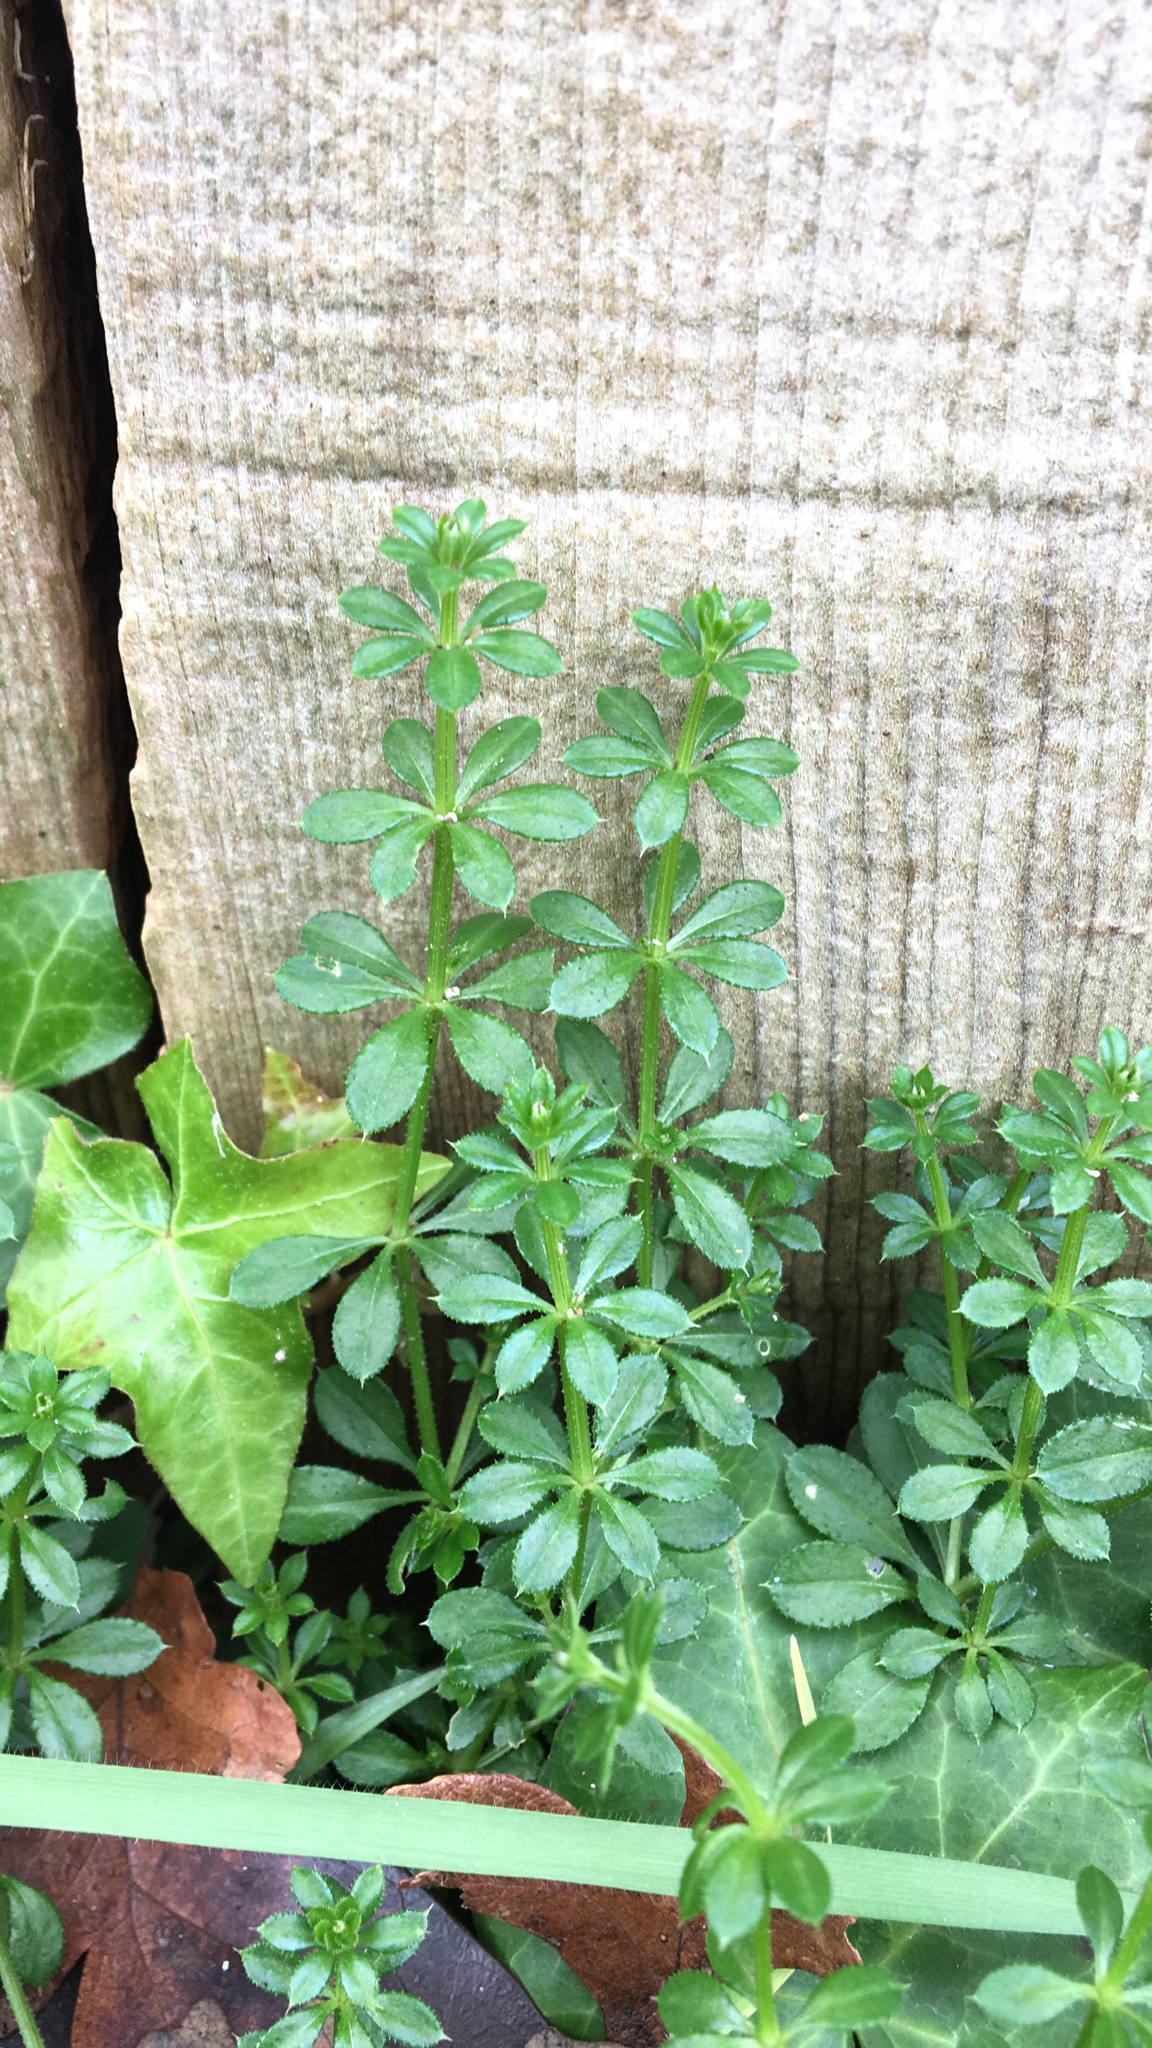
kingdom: Plantae
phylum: Tracheophyta
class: Magnoliopsida
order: Gentianales
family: Rubiaceae
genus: Galium
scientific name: Galium aparine
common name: Cleavers
